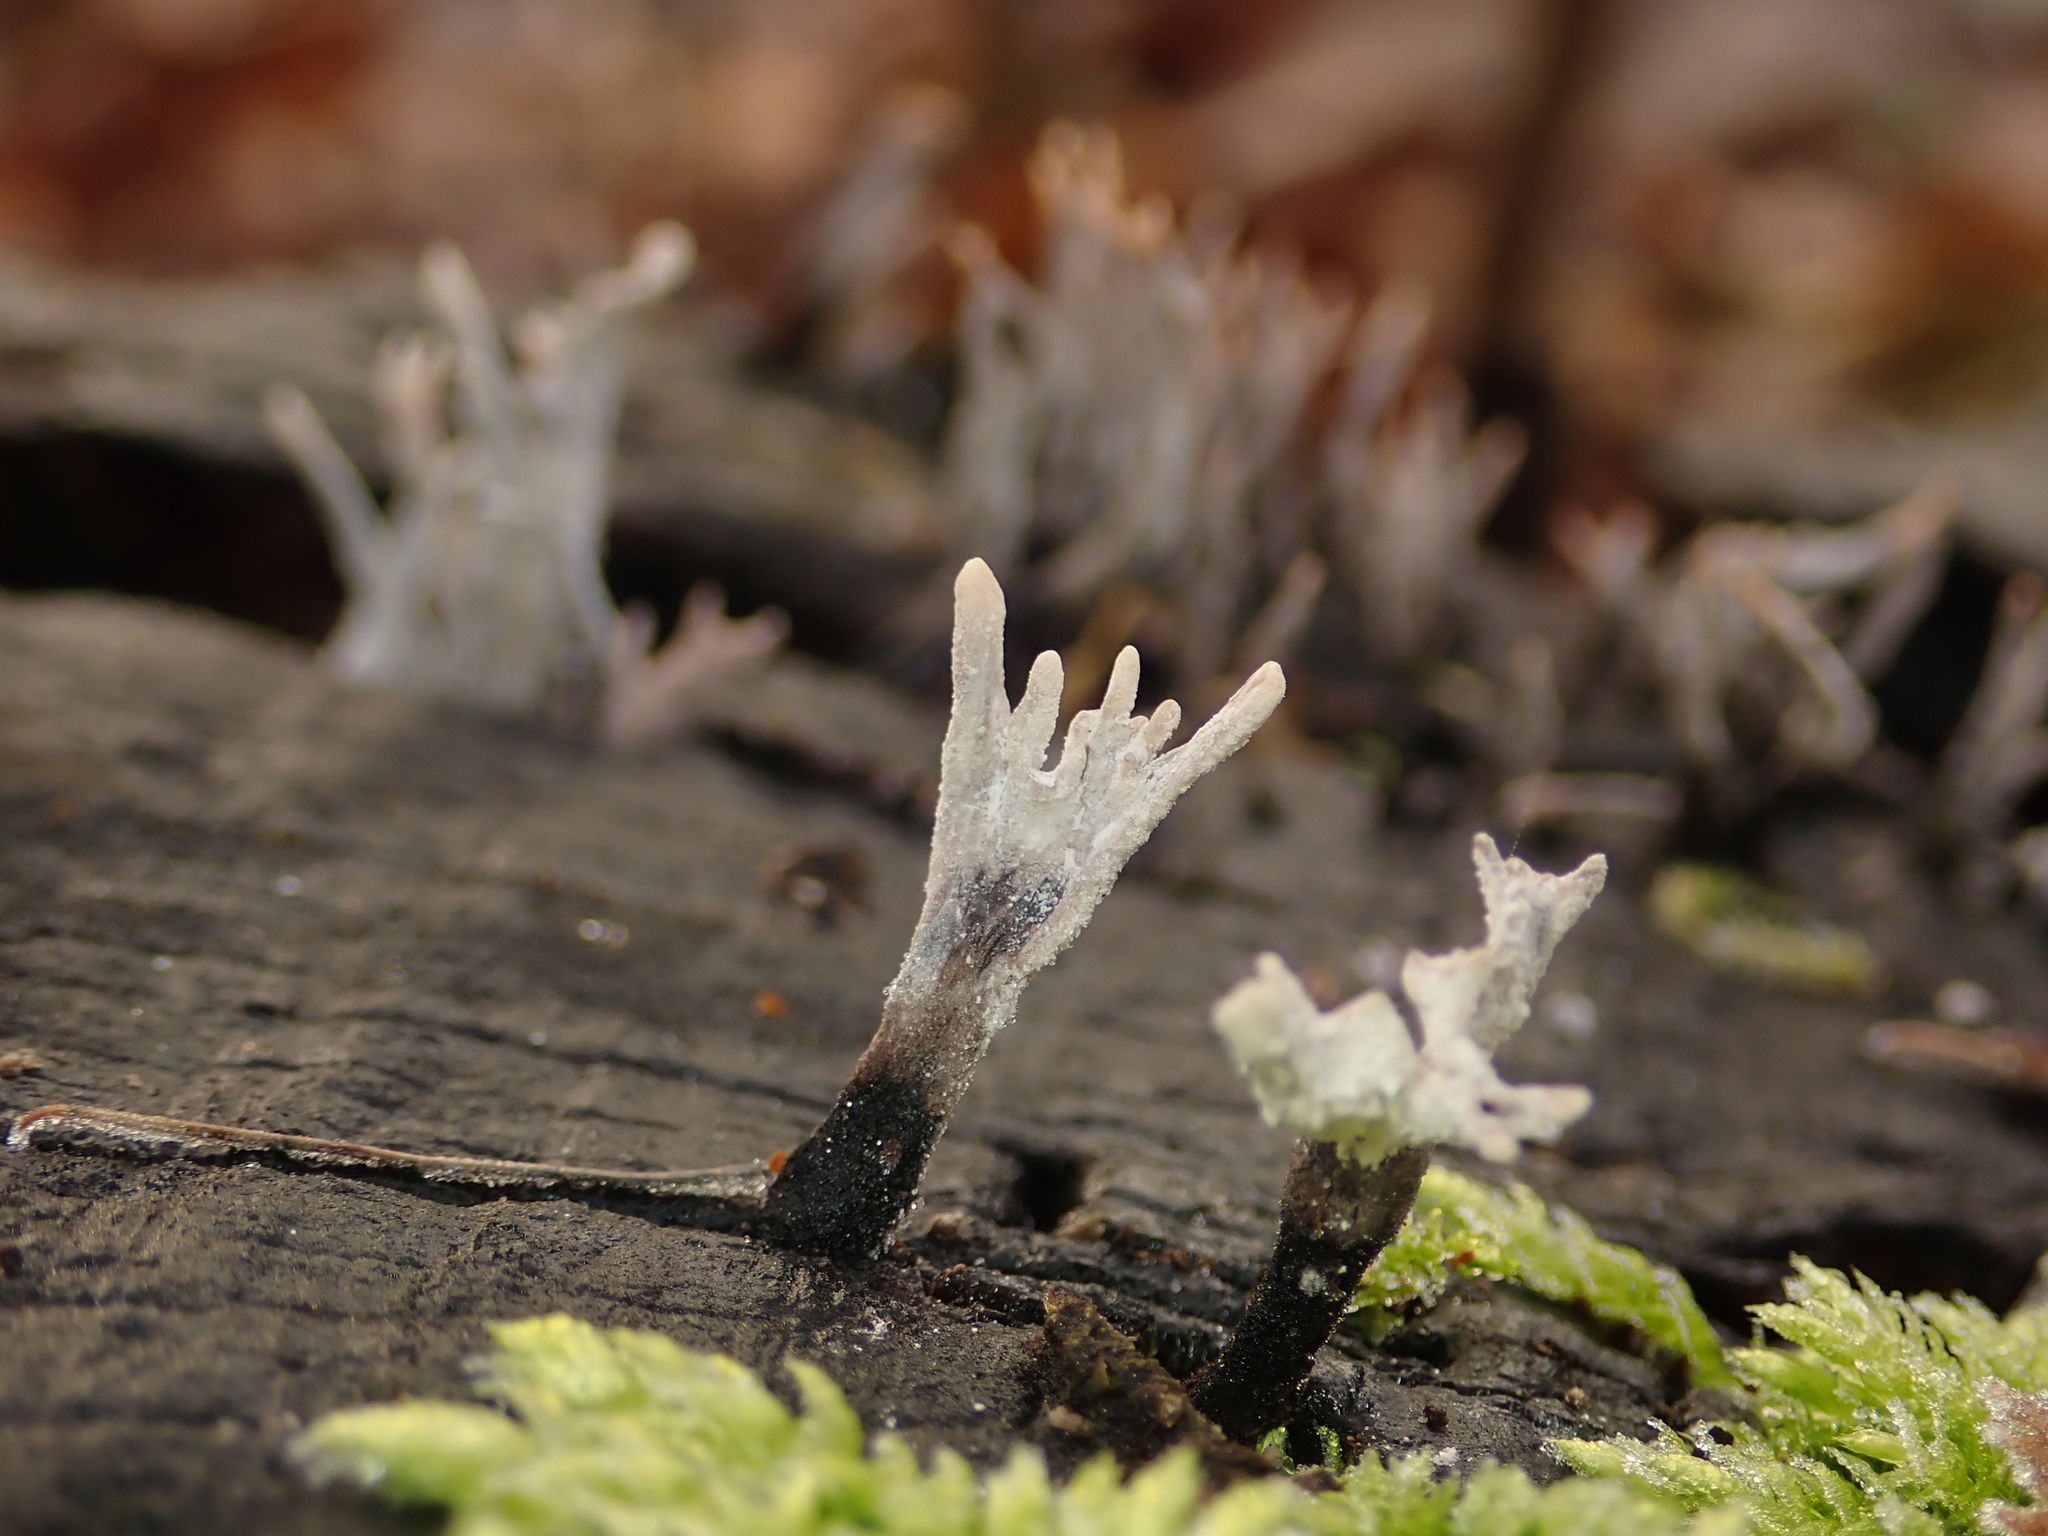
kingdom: Fungi
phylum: Ascomycota
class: Sordariomycetes
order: Xylariales
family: Xylariaceae
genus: Xylaria
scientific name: Xylaria hypoxylon
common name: Candle-snuff fungus
